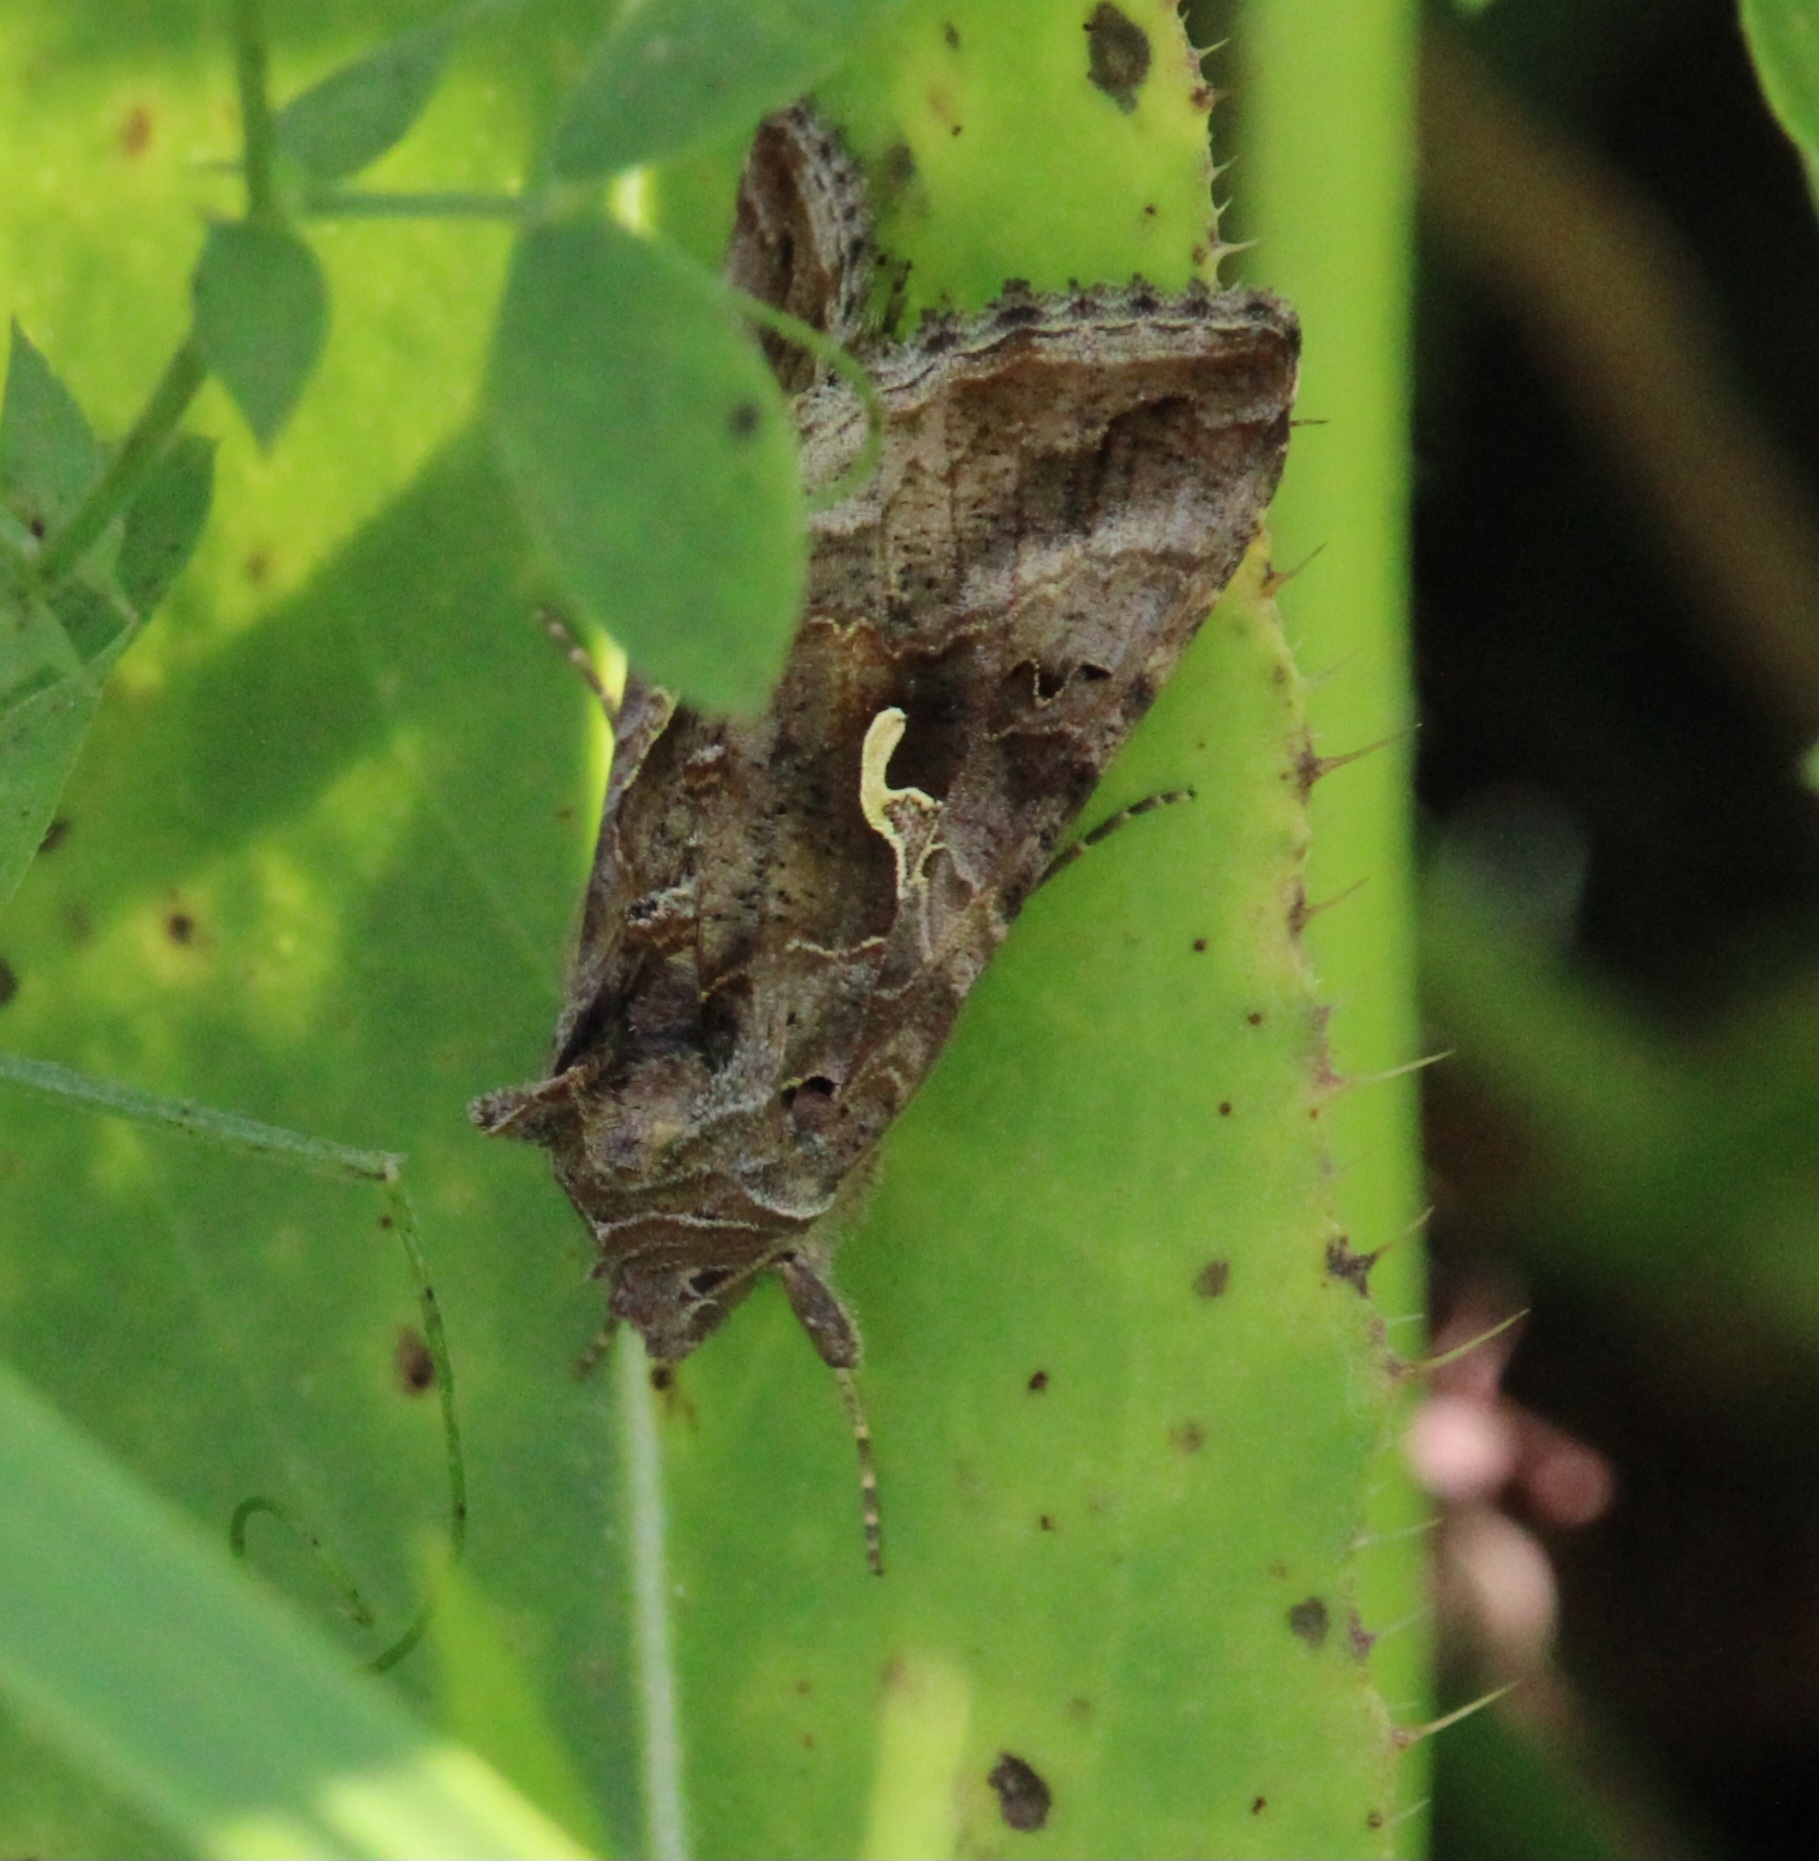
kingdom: Animalia
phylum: Arthropoda
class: Insecta
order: Lepidoptera
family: Noctuidae
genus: Autographa
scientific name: Autographa gamma
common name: Silver y
